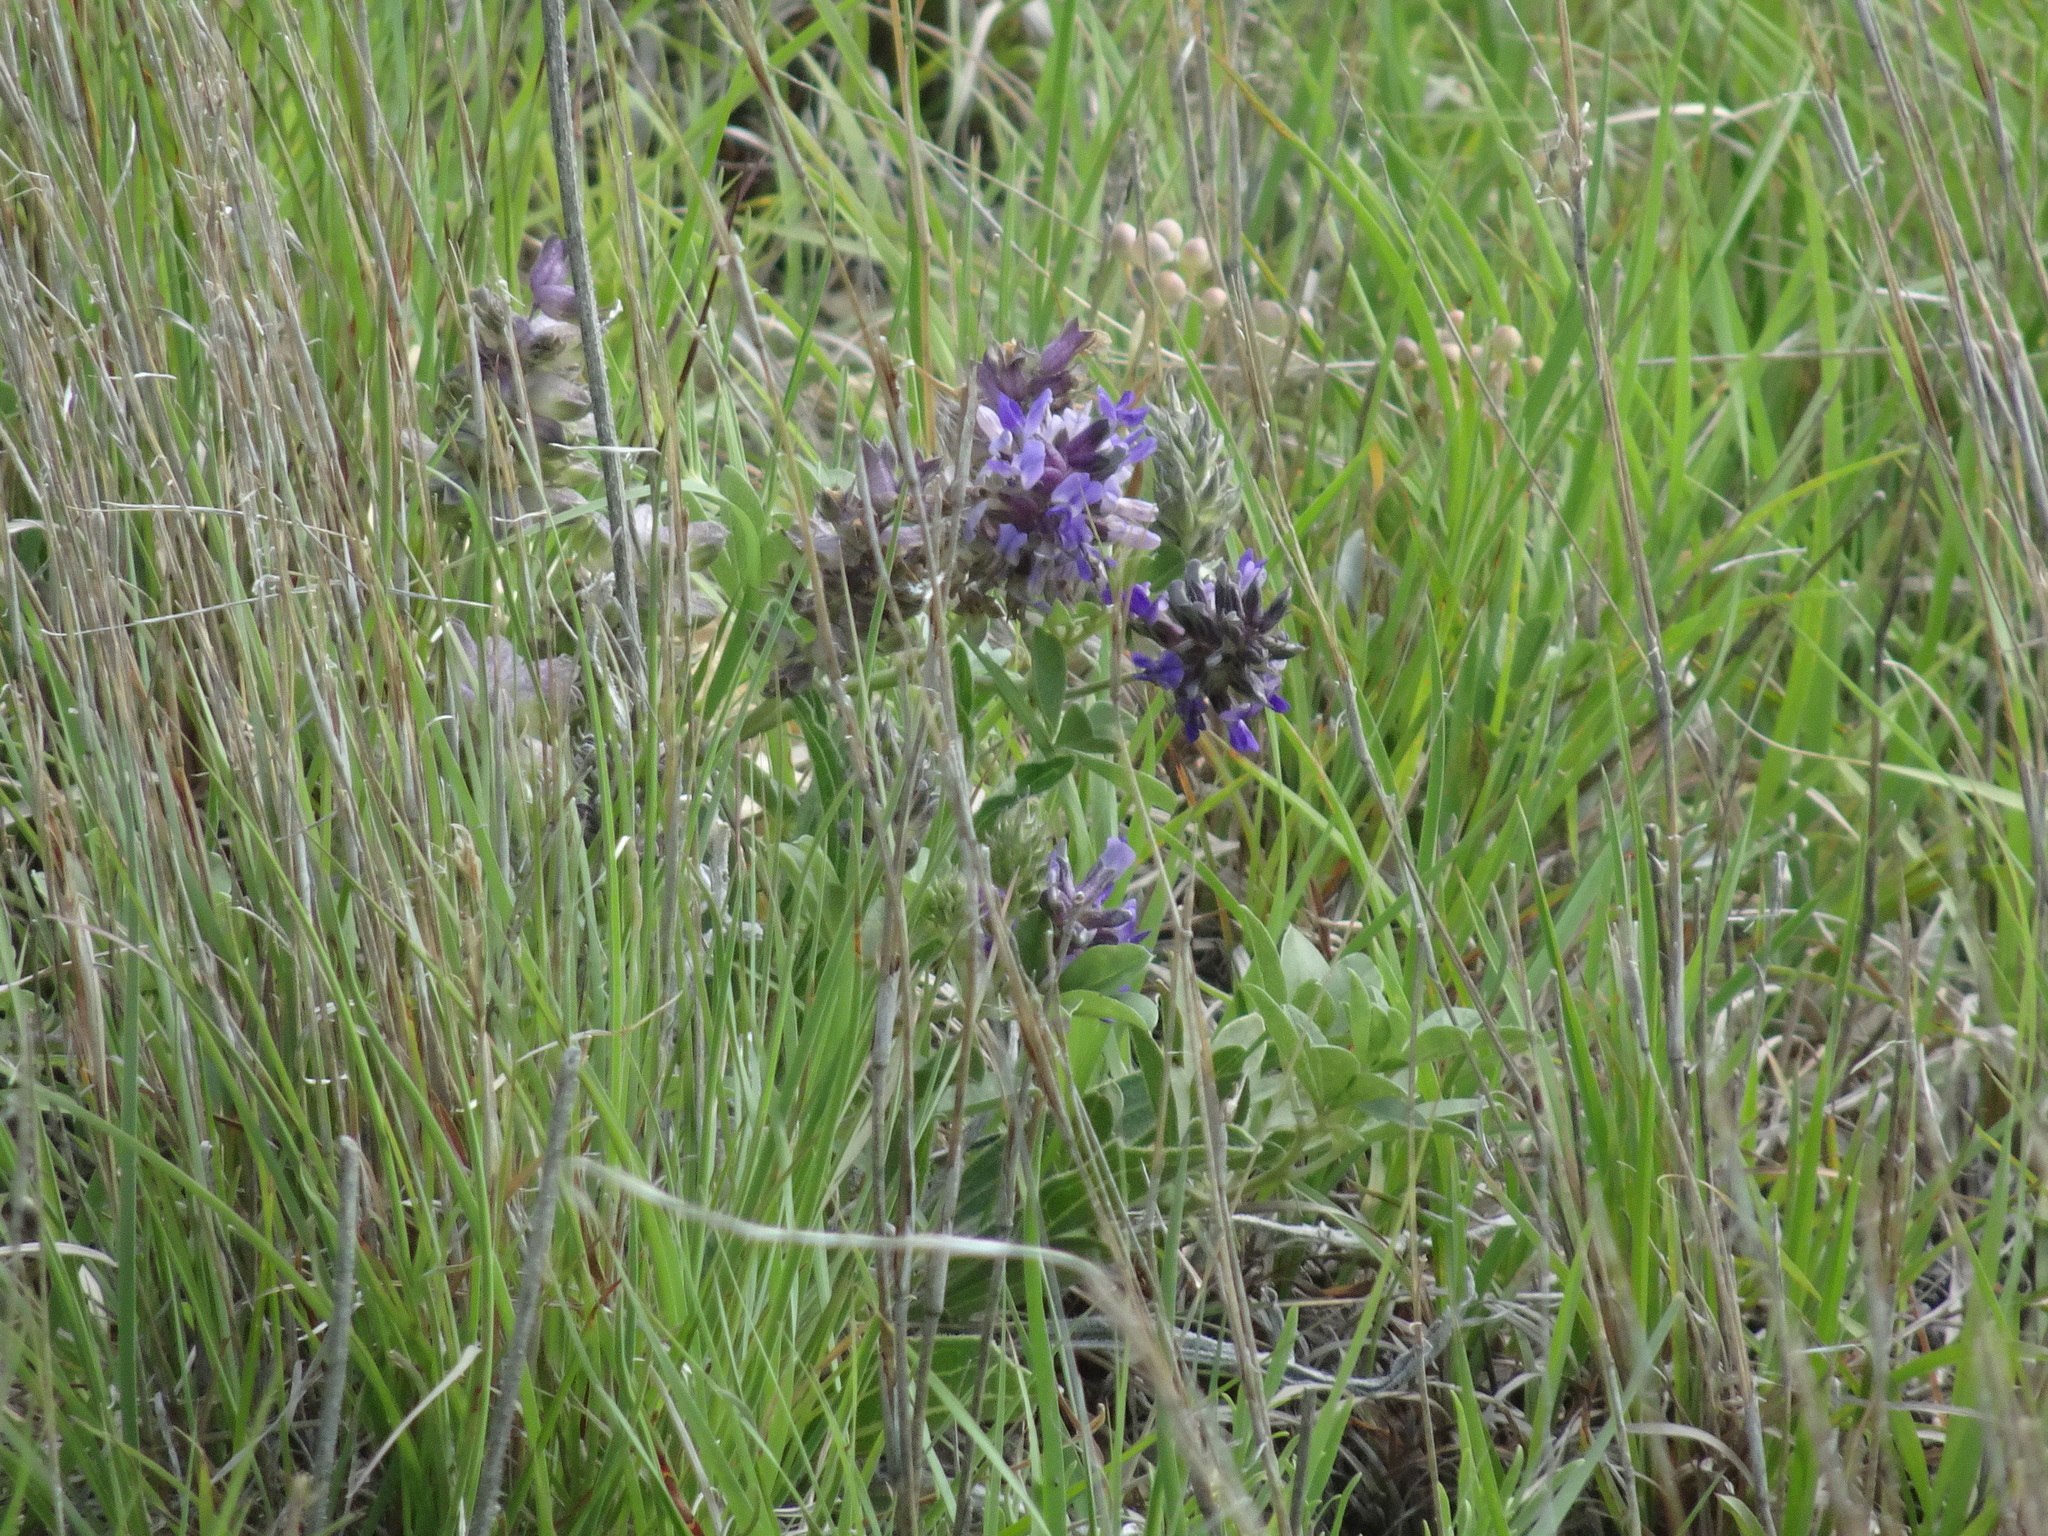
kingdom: Plantae
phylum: Tracheophyta
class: Magnoliopsida
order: Fabales
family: Fabaceae
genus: Pediomelum
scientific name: Pediomelum cuspidatum
